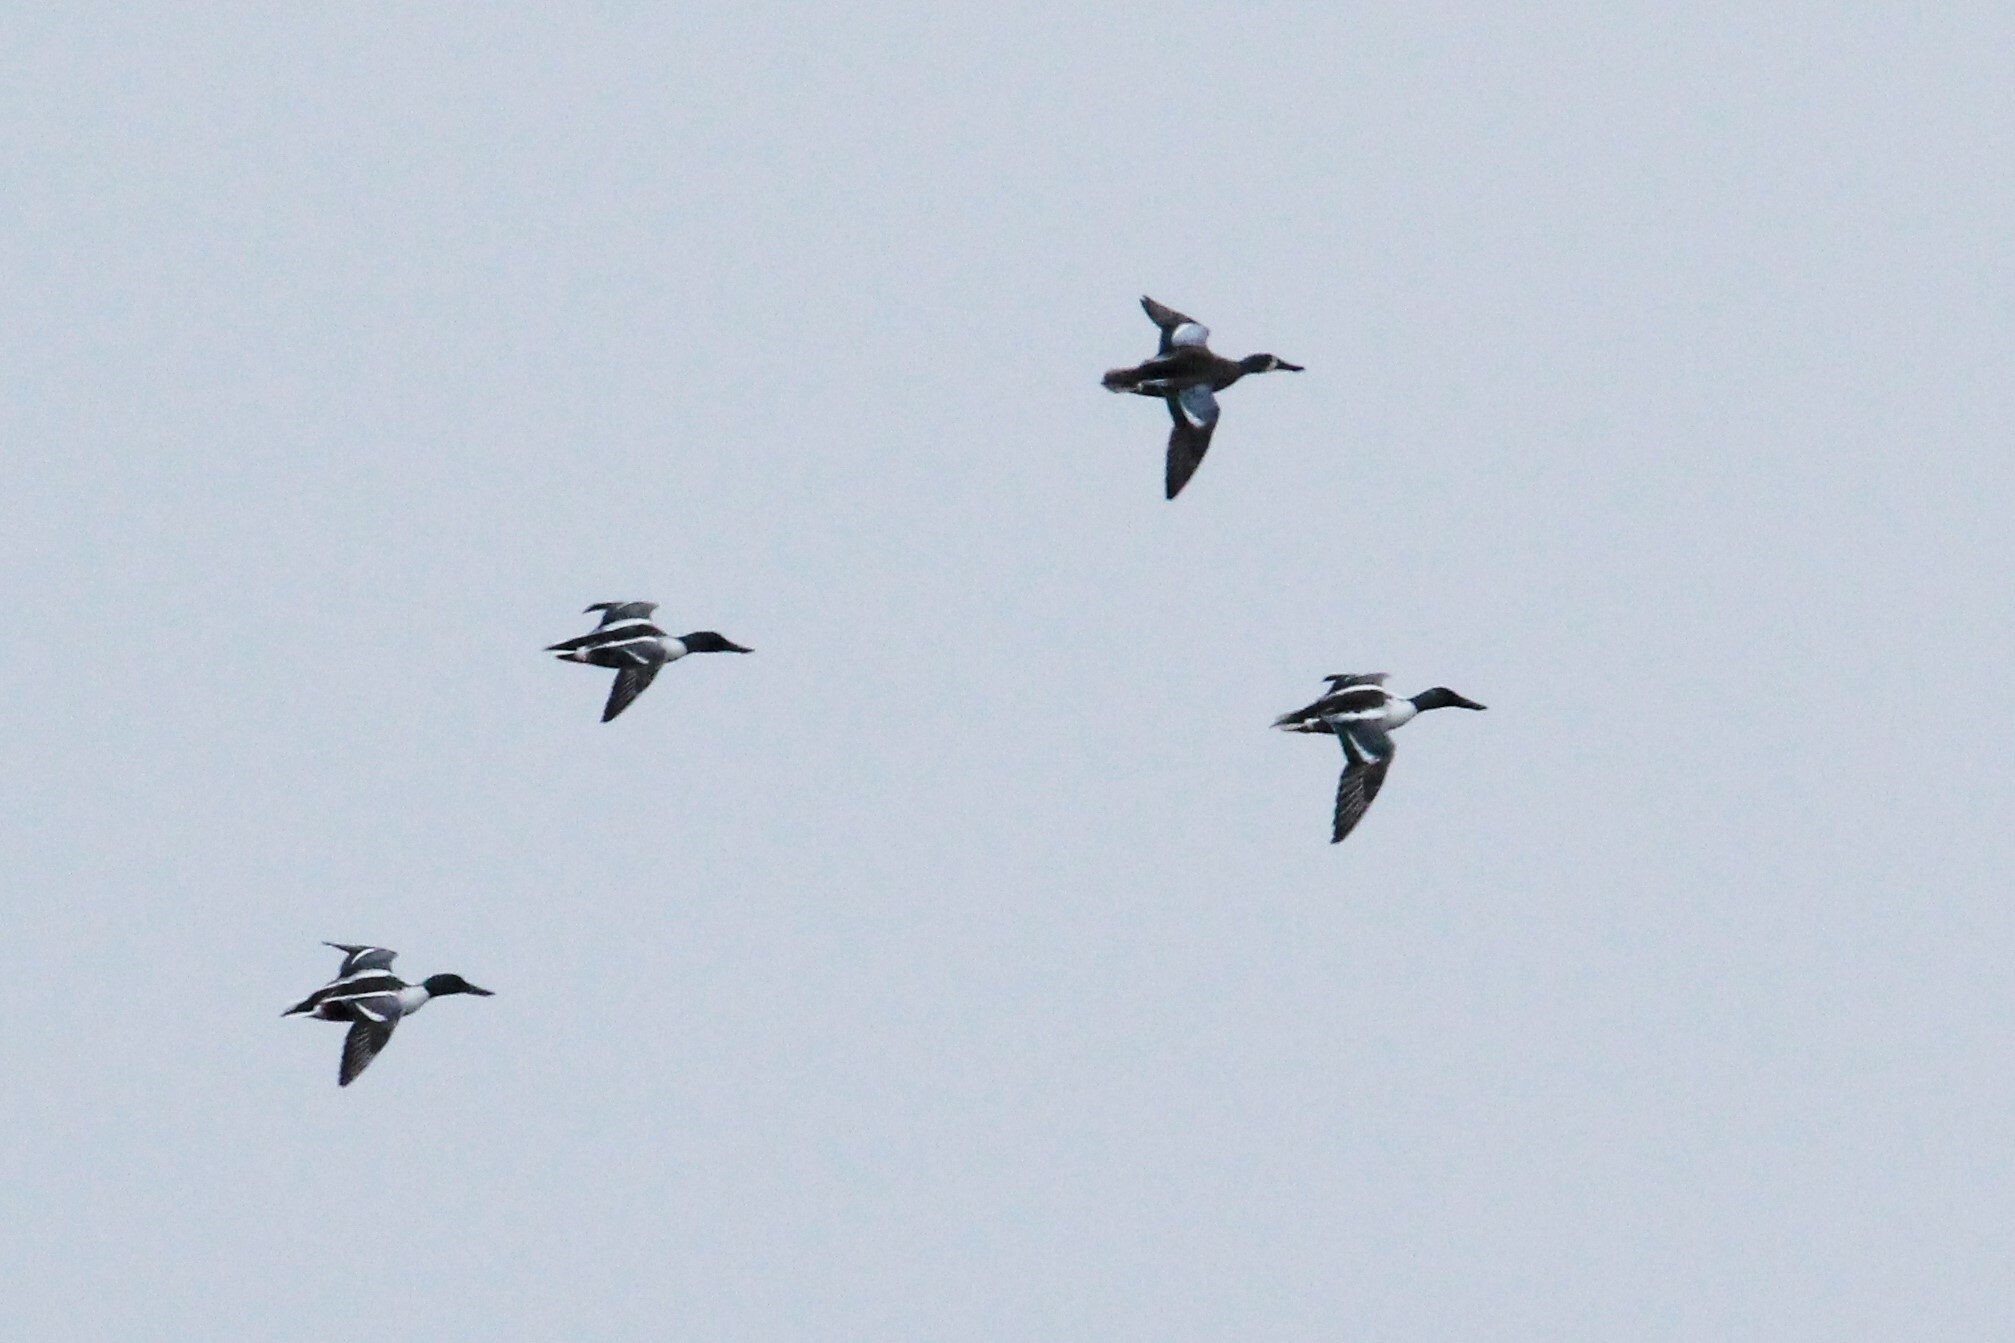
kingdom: Animalia
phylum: Chordata
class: Aves
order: Anseriformes
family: Anatidae
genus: Spatula
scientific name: Spatula
